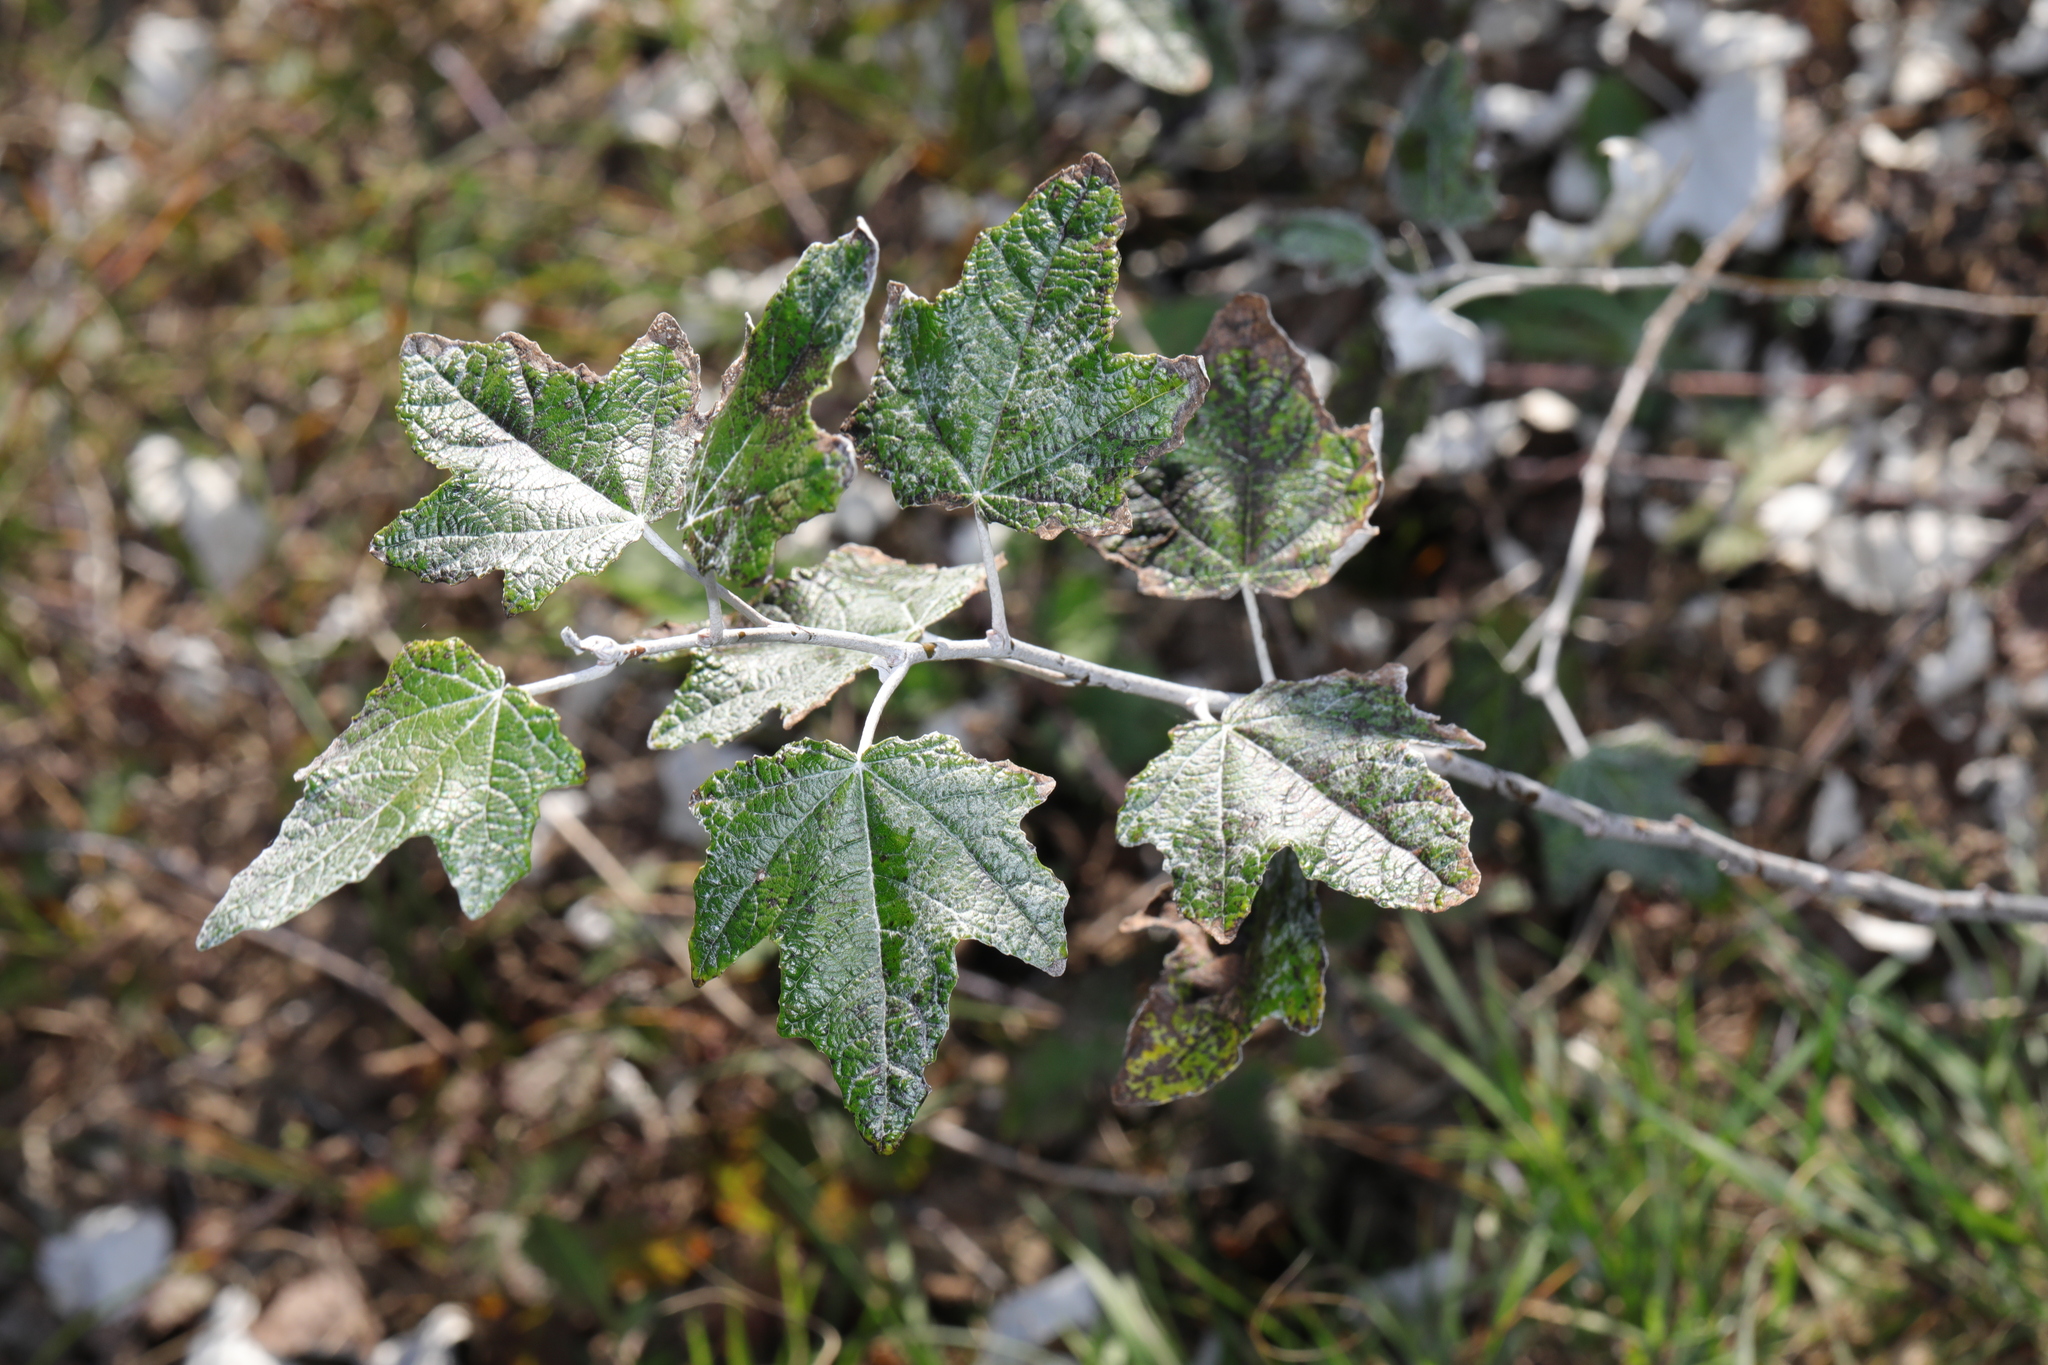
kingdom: Plantae
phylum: Tracheophyta
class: Magnoliopsida
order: Malpighiales
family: Salicaceae
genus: Populus
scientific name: Populus alba
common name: White poplar
